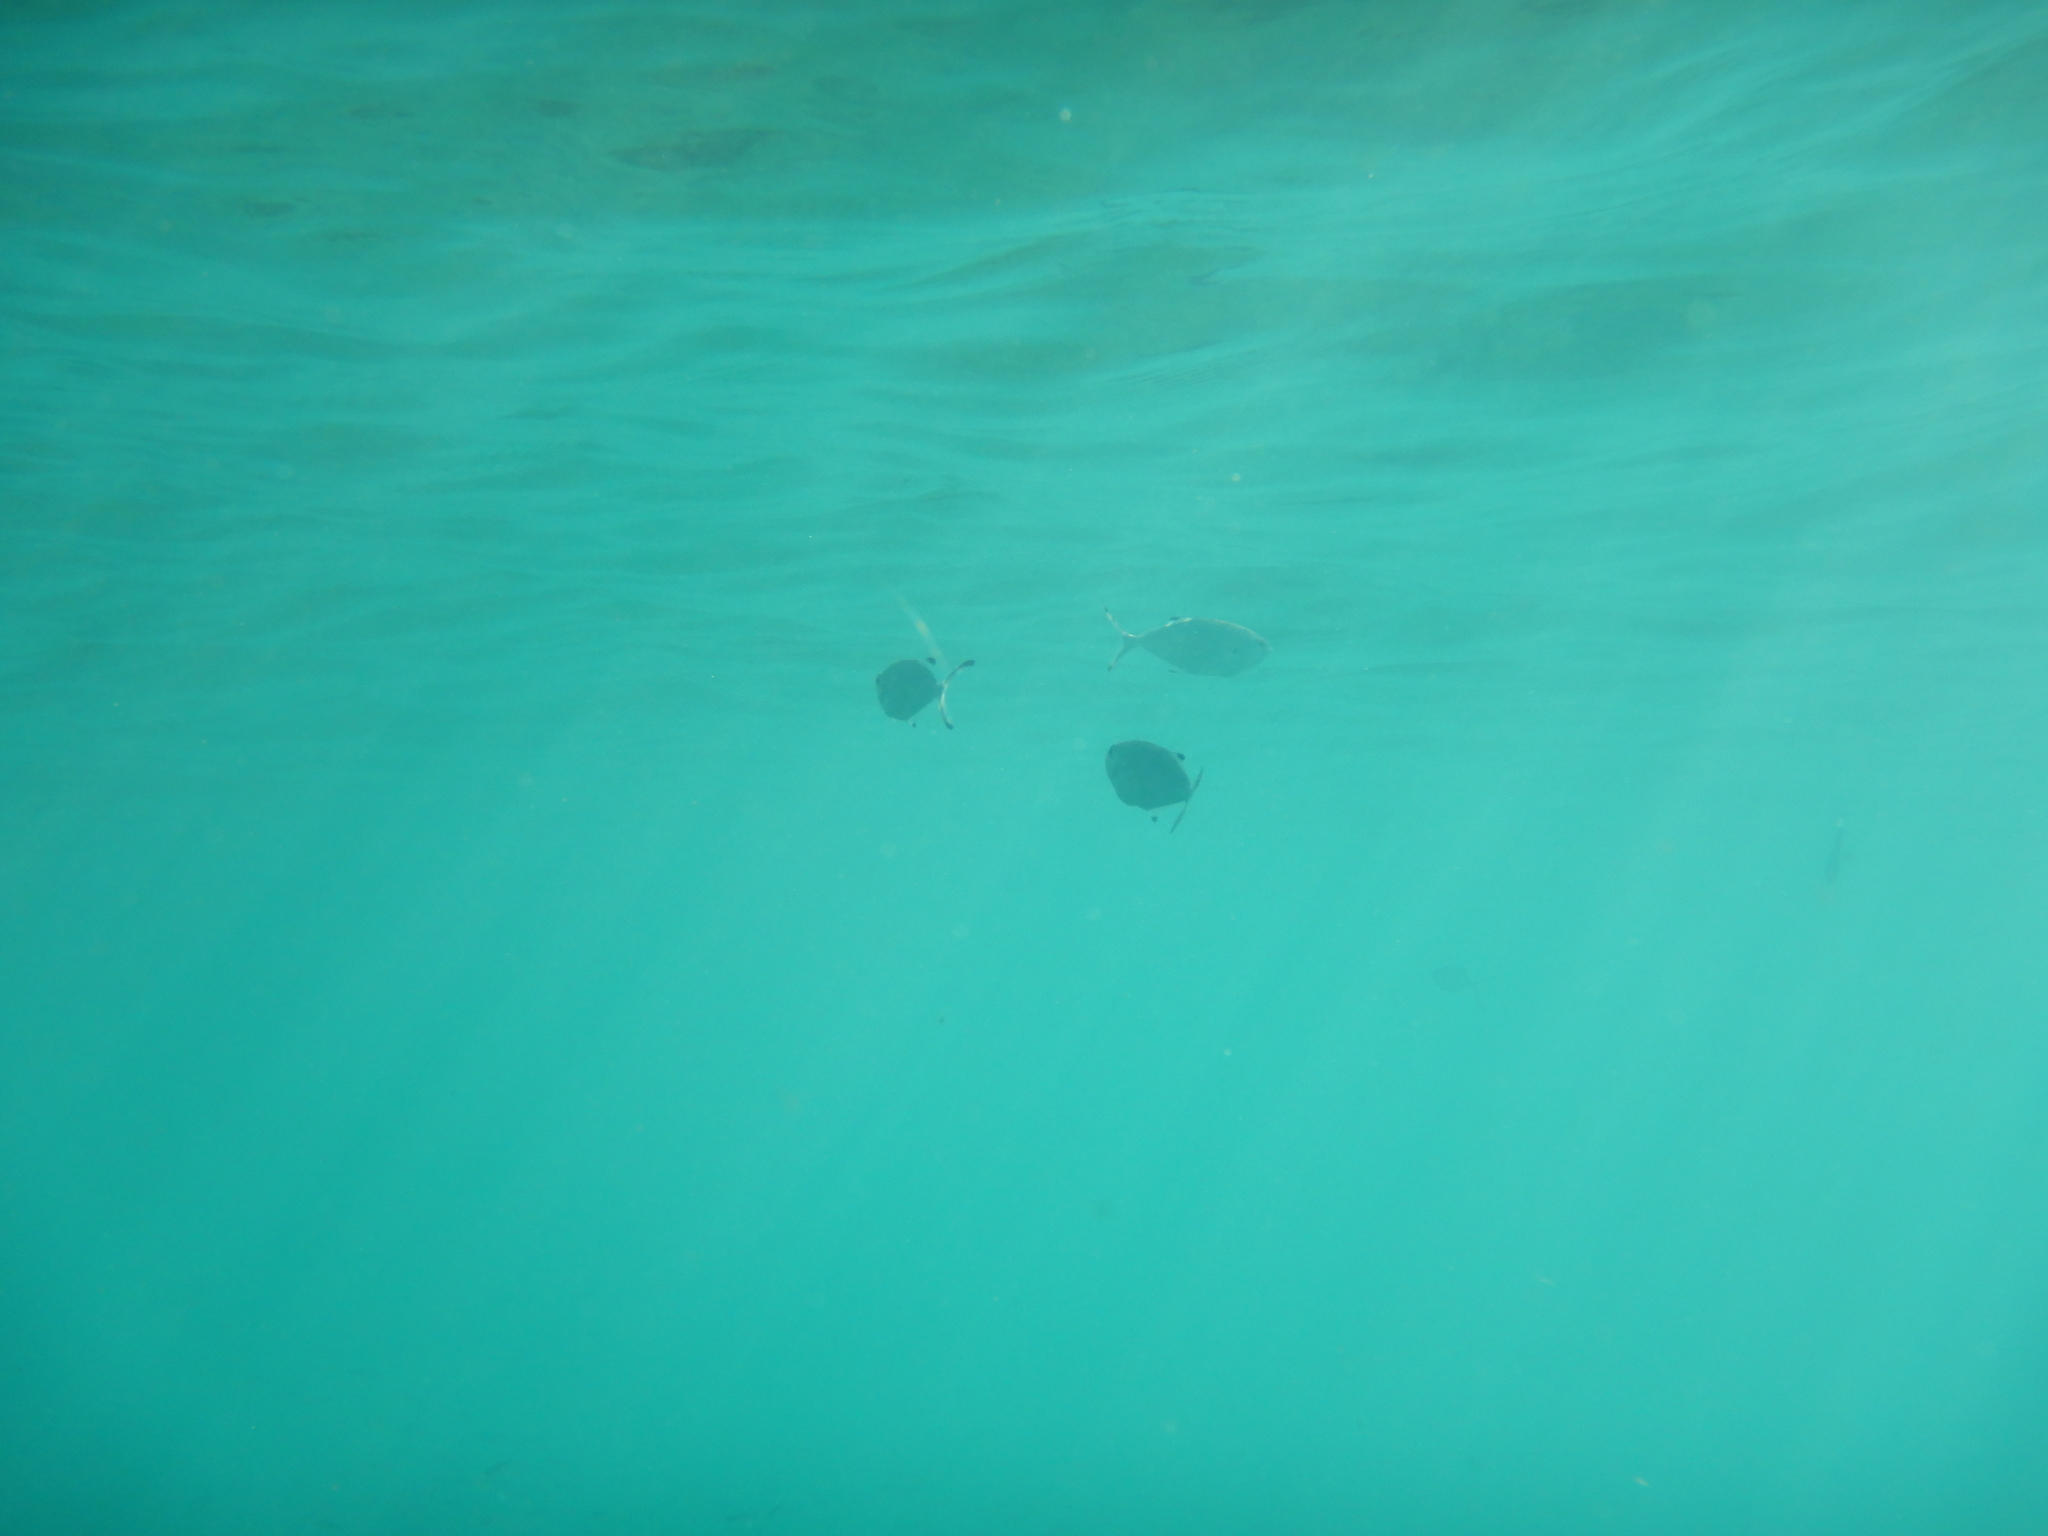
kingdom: Animalia
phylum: Chordata
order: Perciformes
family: Carangidae
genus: Trachinotus
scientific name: Trachinotus ovatus
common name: Pompano
